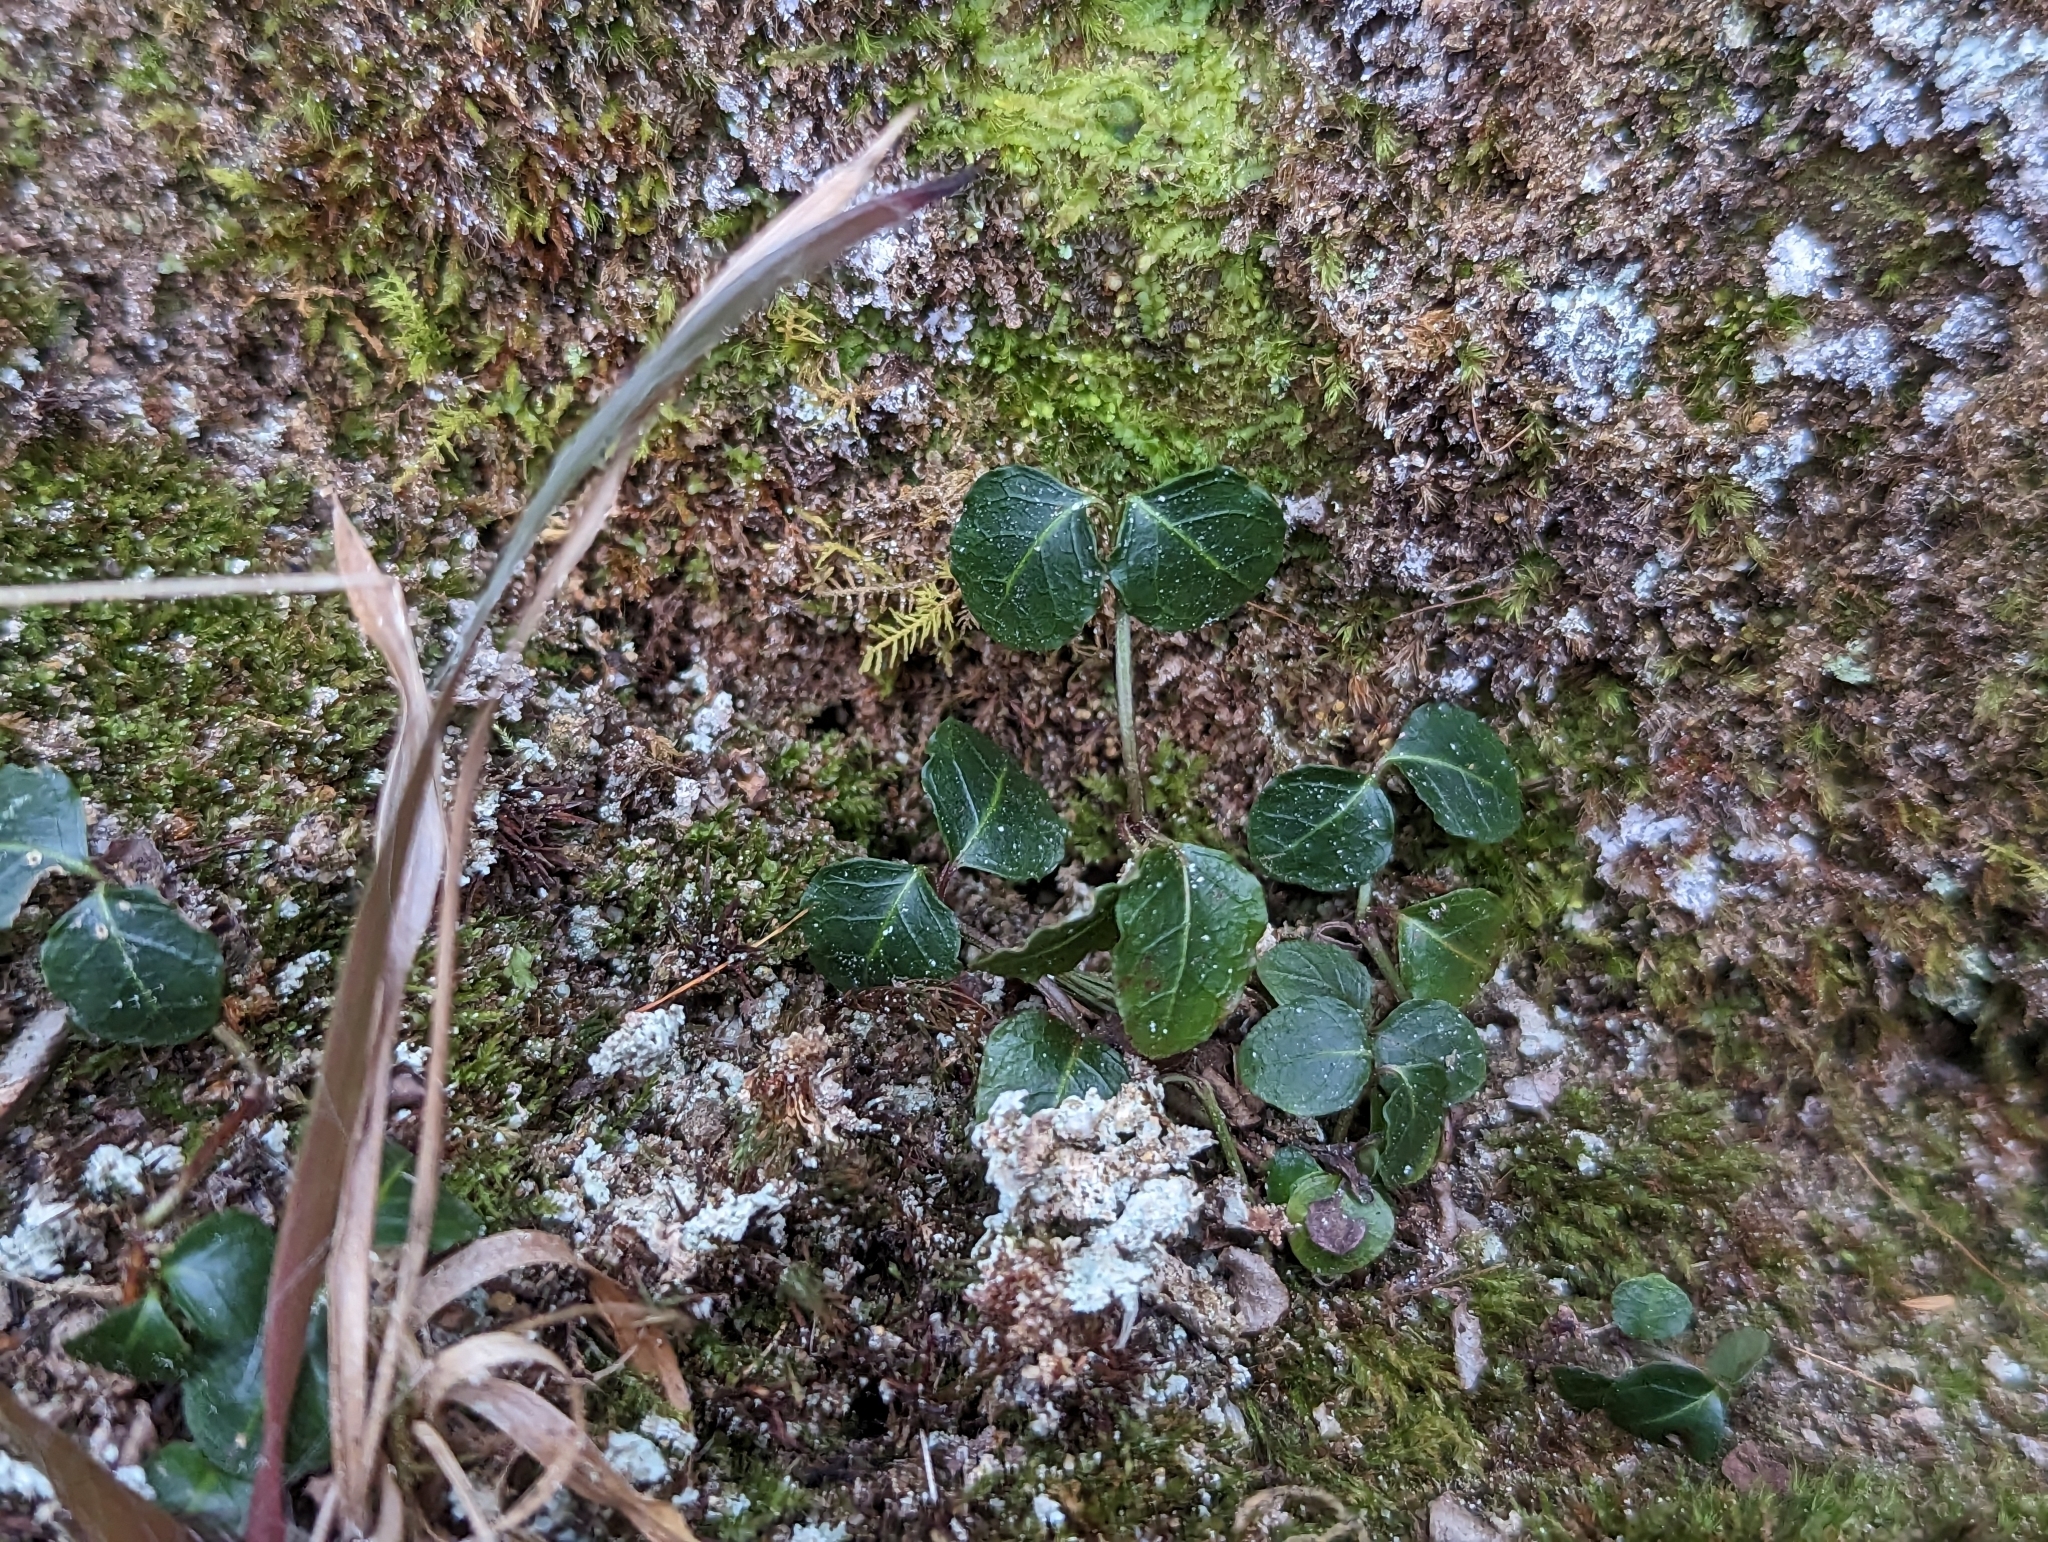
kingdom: Plantae
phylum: Tracheophyta
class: Magnoliopsida
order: Gentianales
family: Rubiaceae
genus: Mitchella
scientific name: Mitchella repens
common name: Partridge-berry
